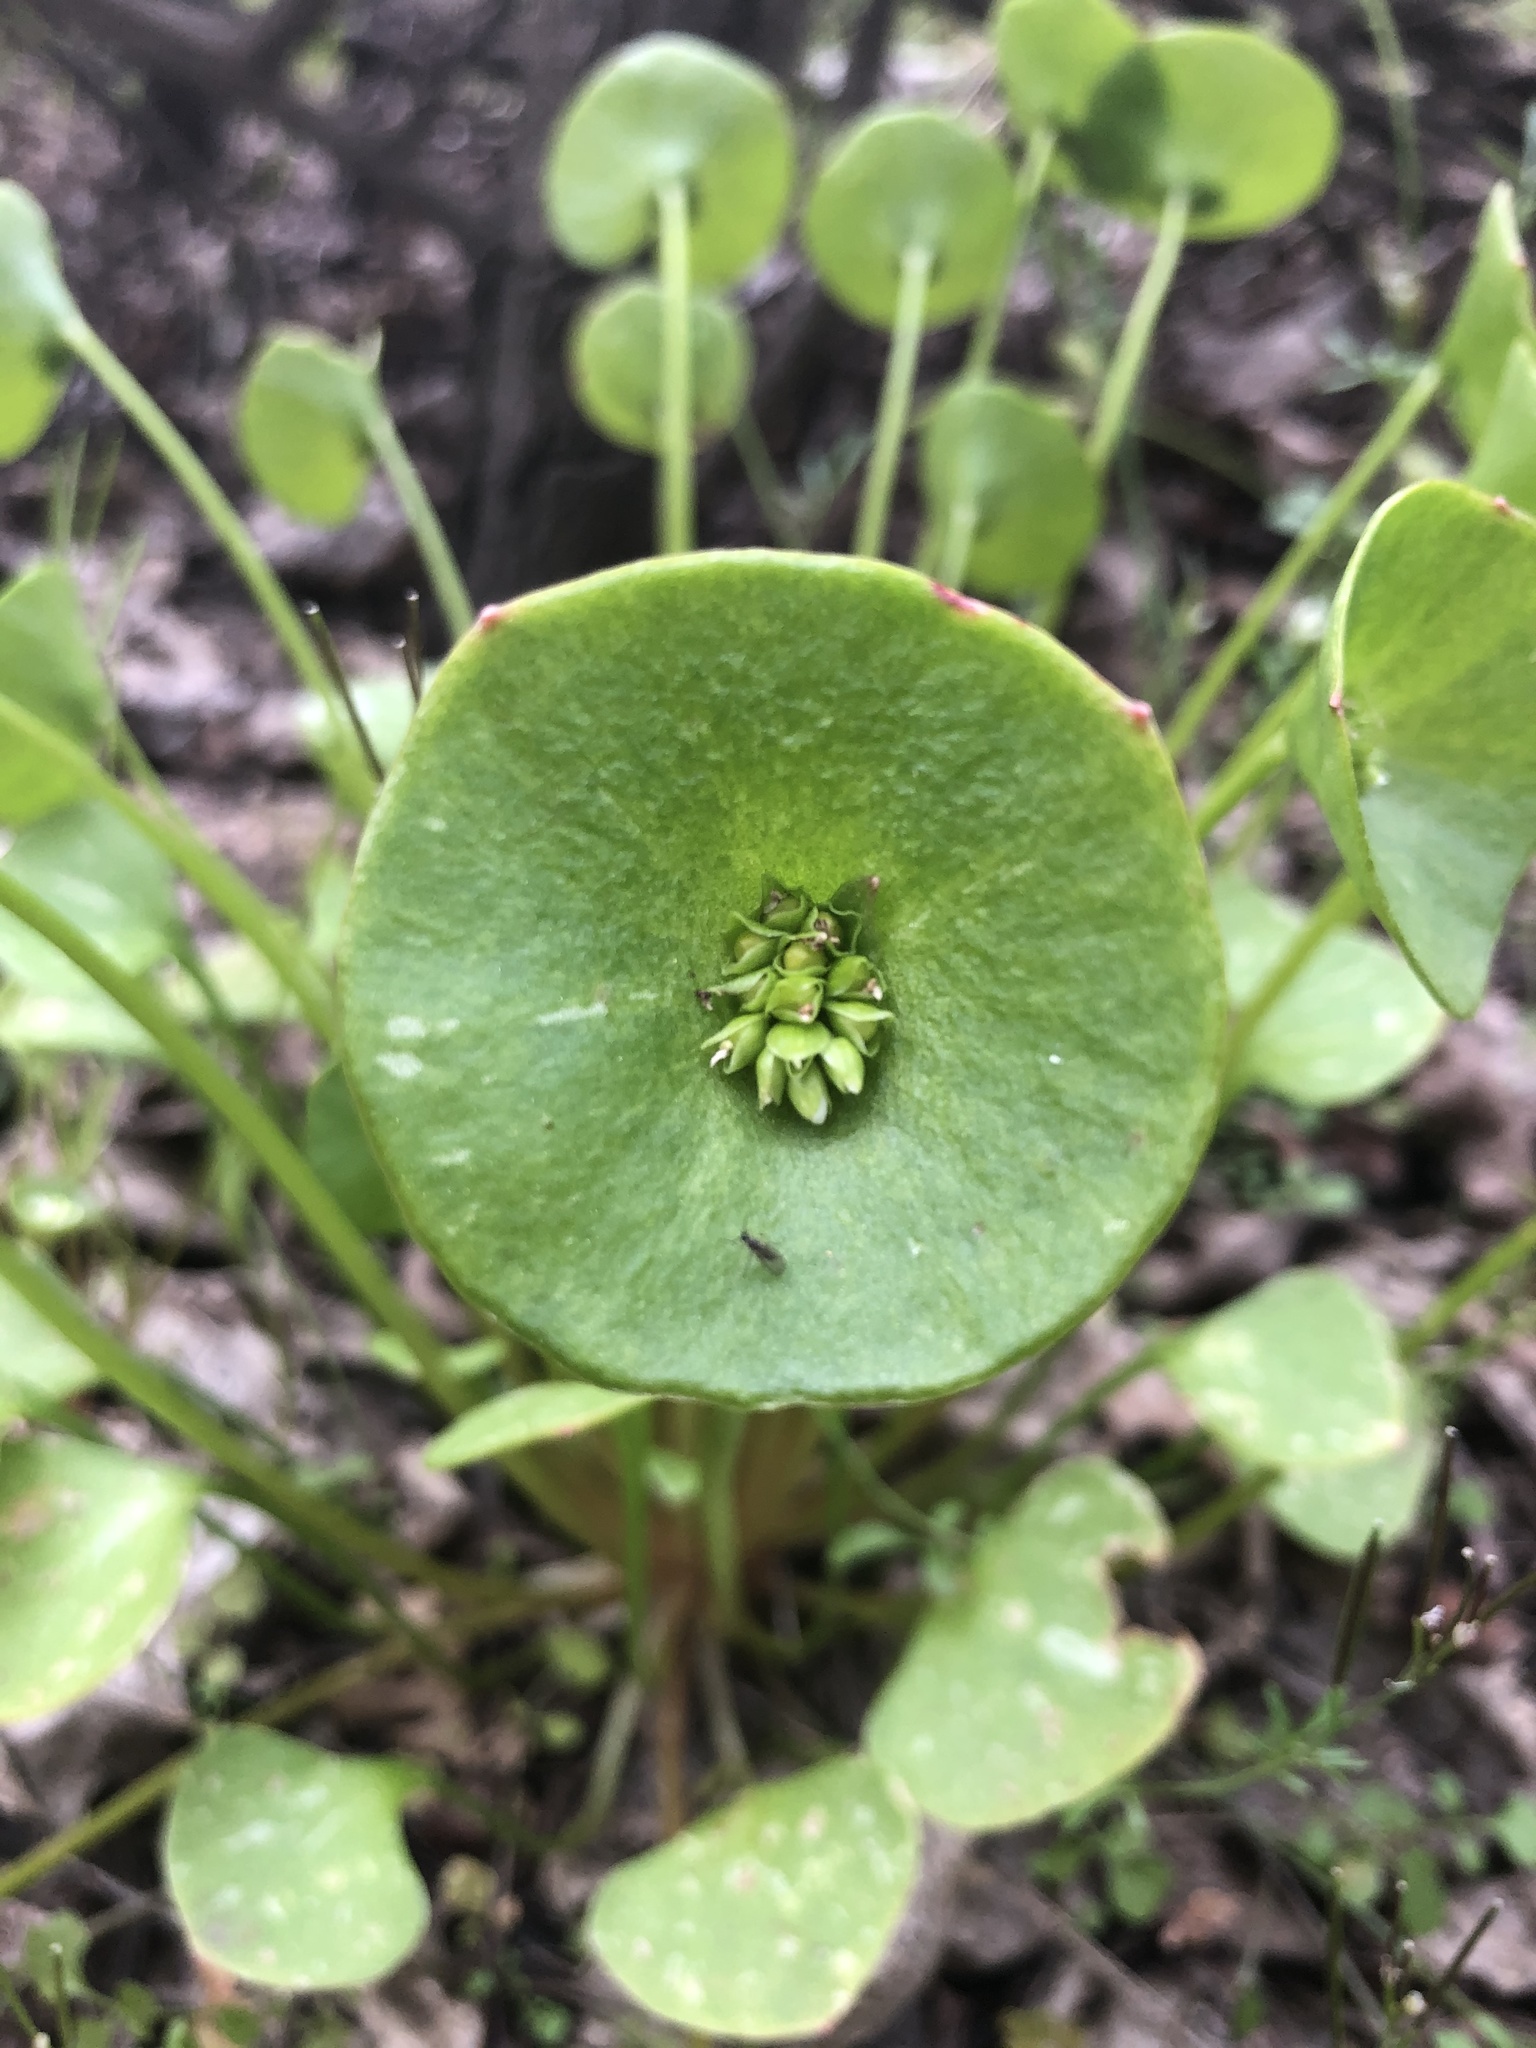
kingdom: Plantae
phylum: Tracheophyta
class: Magnoliopsida
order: Caryophyllales
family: Montiaceae
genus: Claytonia
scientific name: Claytonia perfoliata
